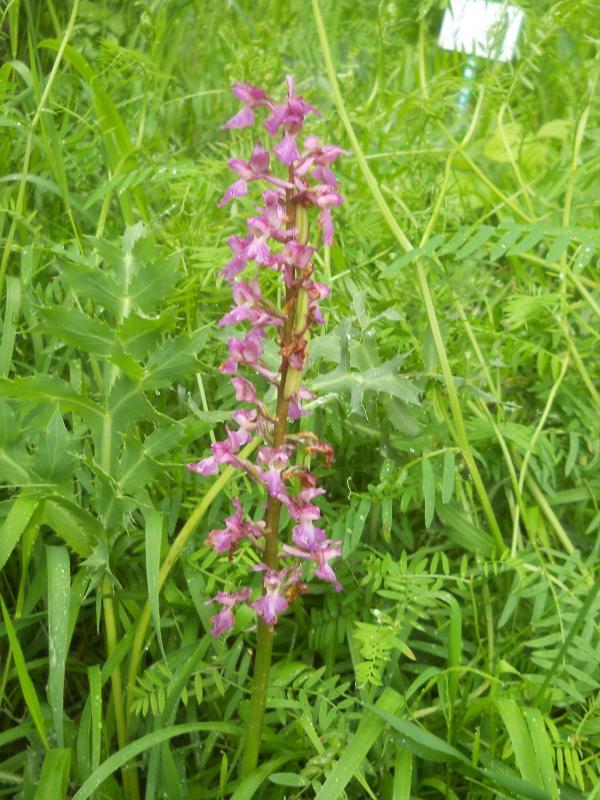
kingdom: Plantae
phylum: Tracheophyta
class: Liliopsida
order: Asparagales
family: Orchidaceae
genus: Orchis
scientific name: Orchis mascula
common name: Early-purple orchid
